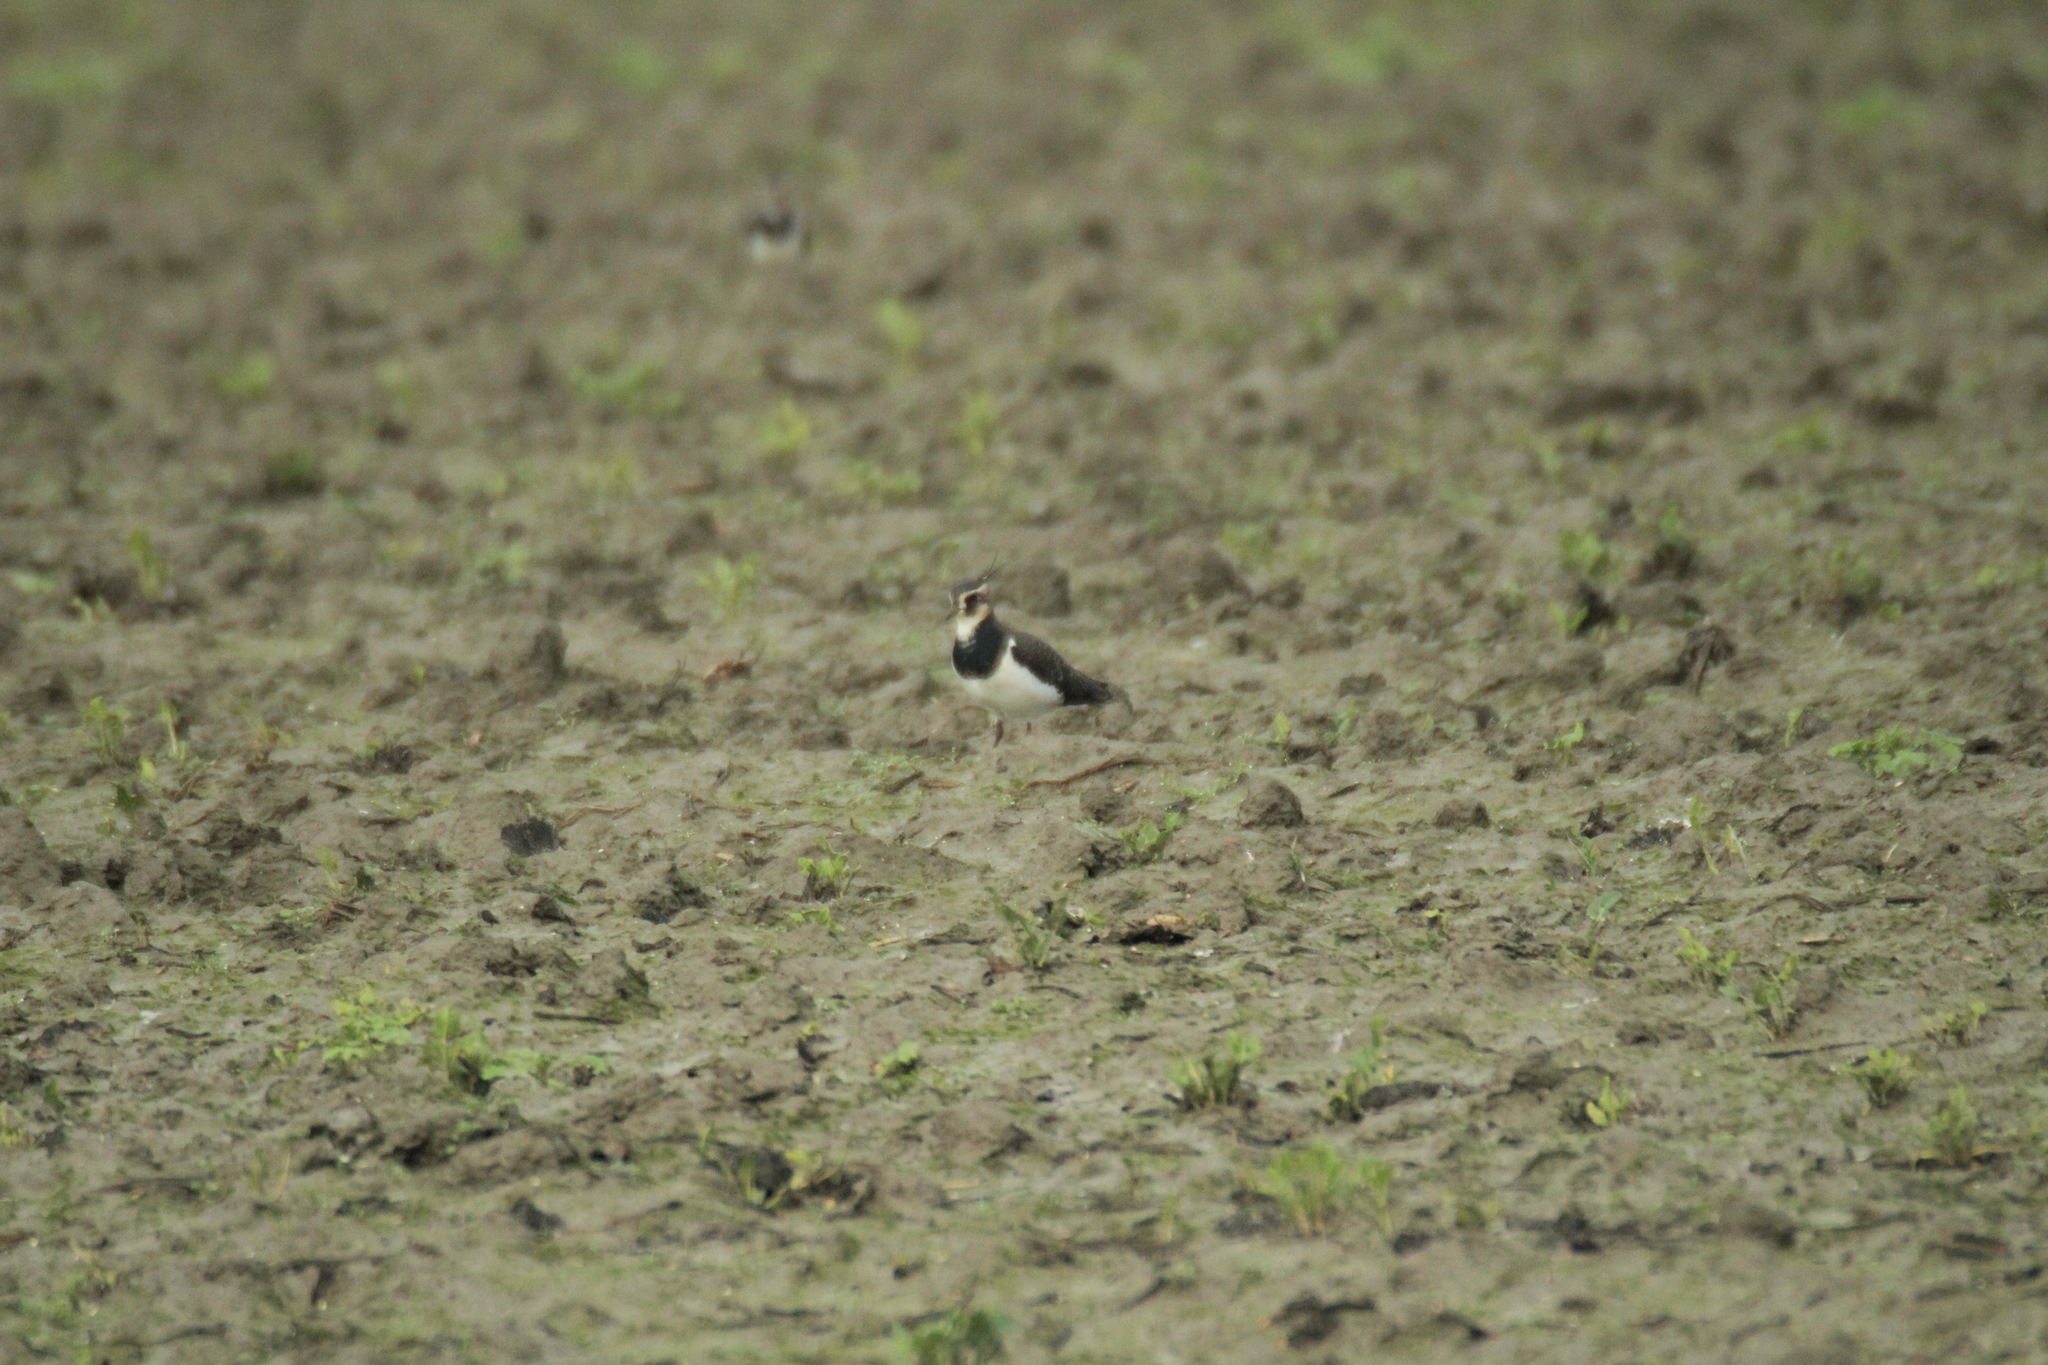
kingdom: Animalia
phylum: Chordata
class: Aves
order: Charadriiformes
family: Charadriidae
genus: Vanellus
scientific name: Vanellus vanellus
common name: Northern lapwing
